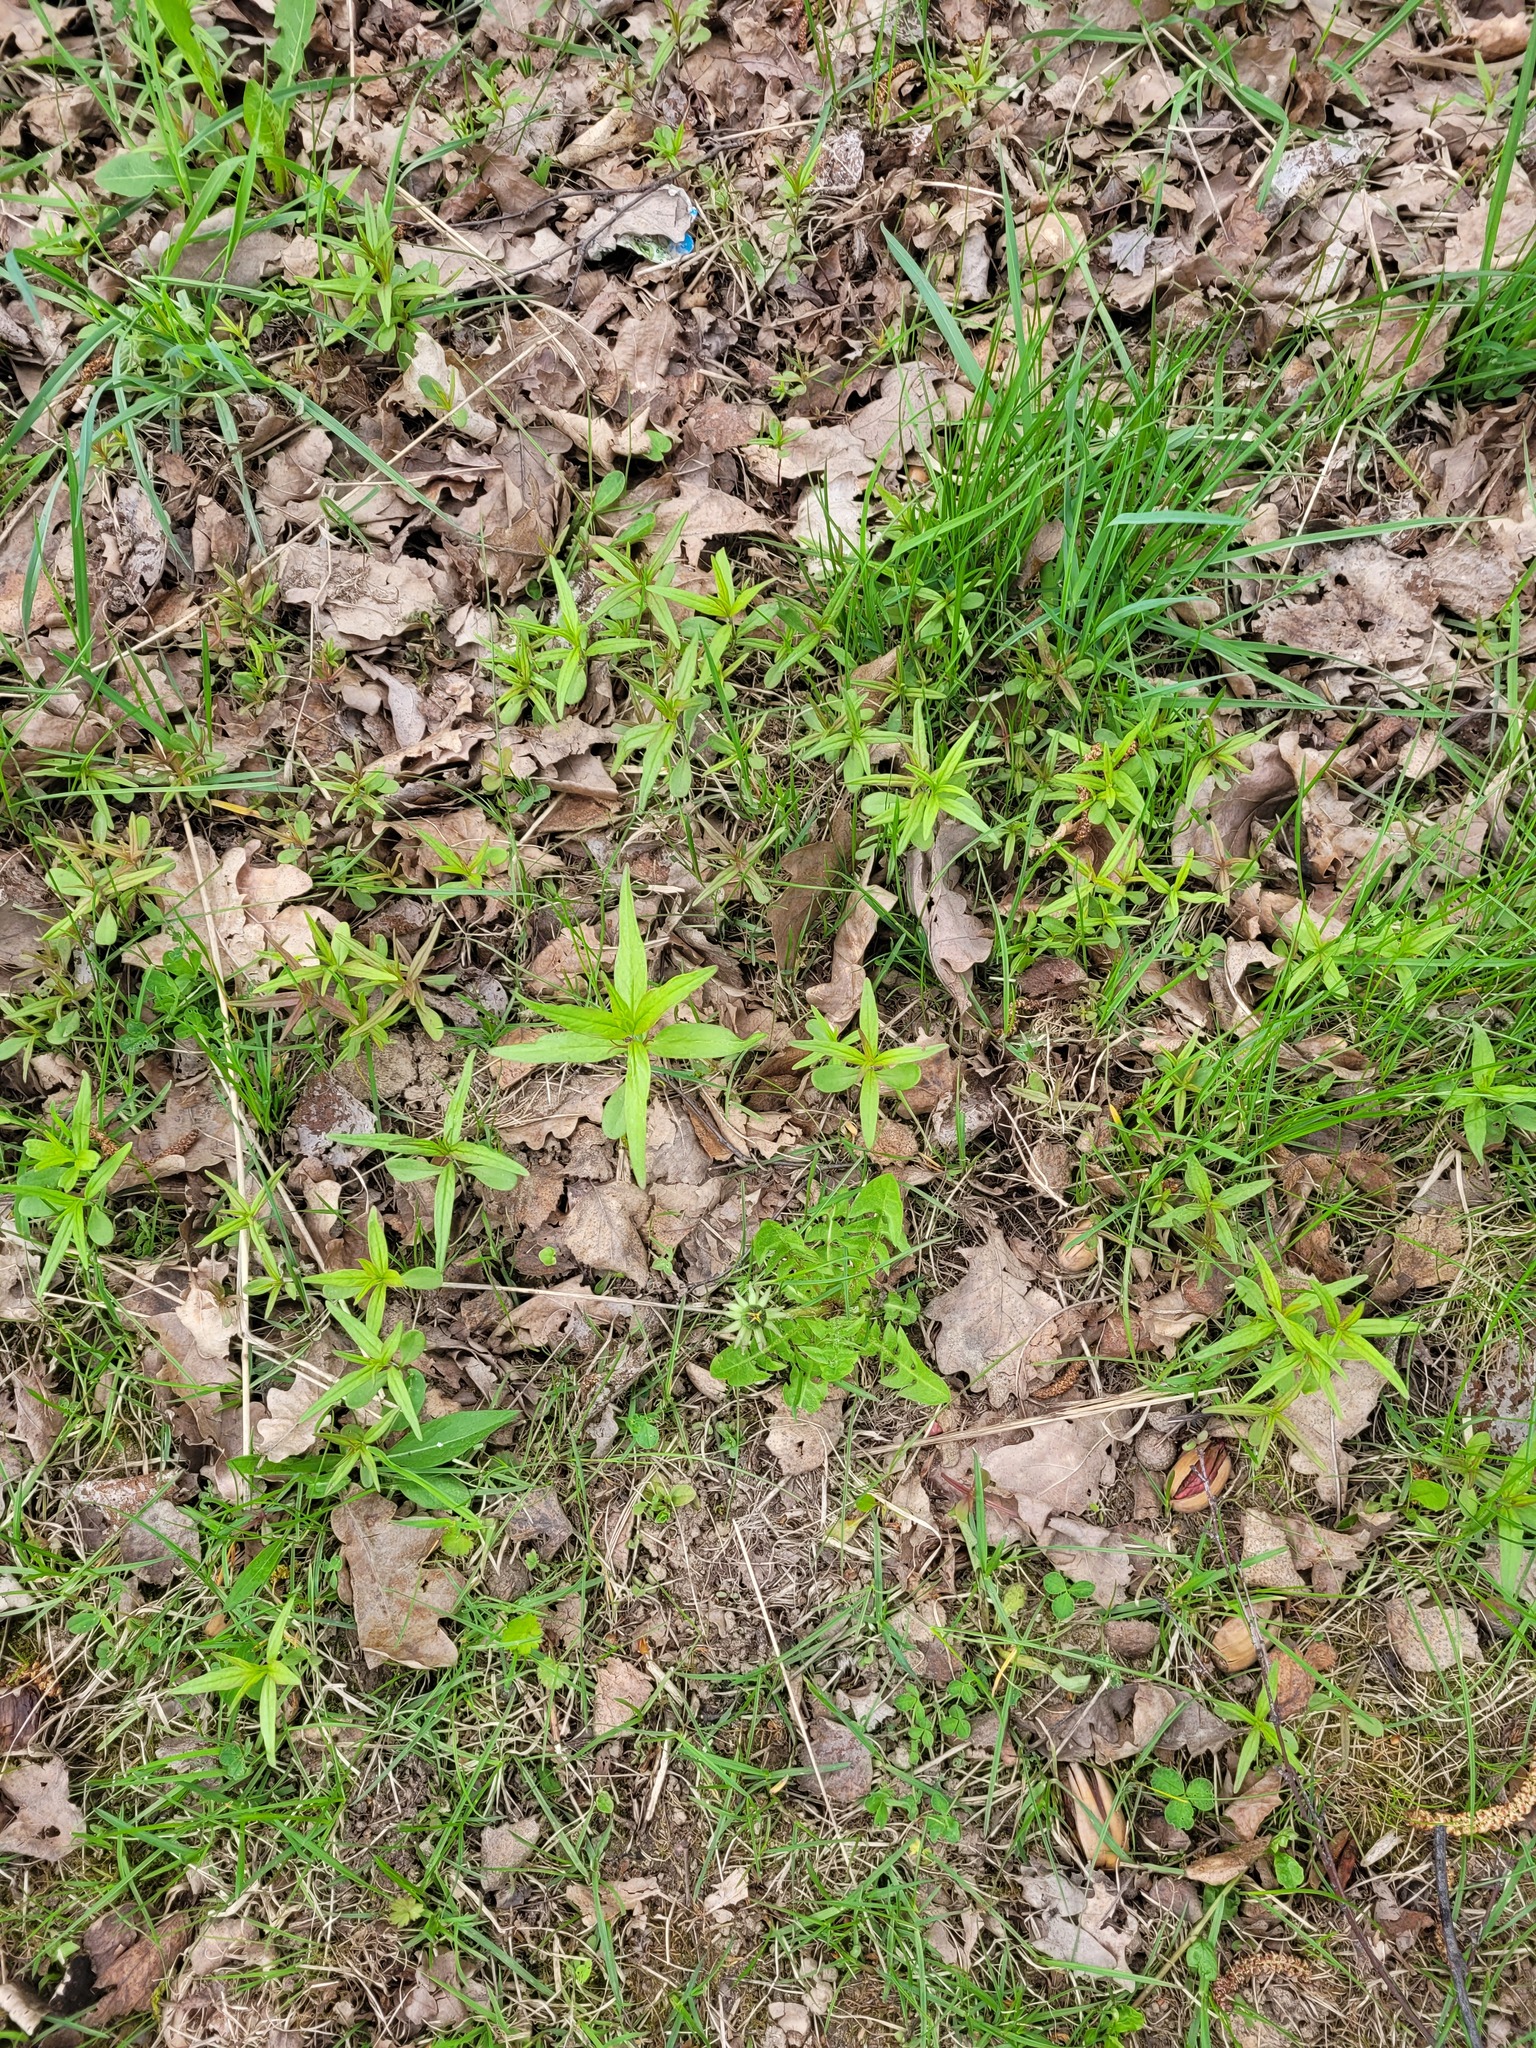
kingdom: Plantae
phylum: Tracheophyta
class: Magnoliopsida
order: Lamiales
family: Orobanchaceae
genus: Melampyrum
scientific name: Melampyrum nemorosum
